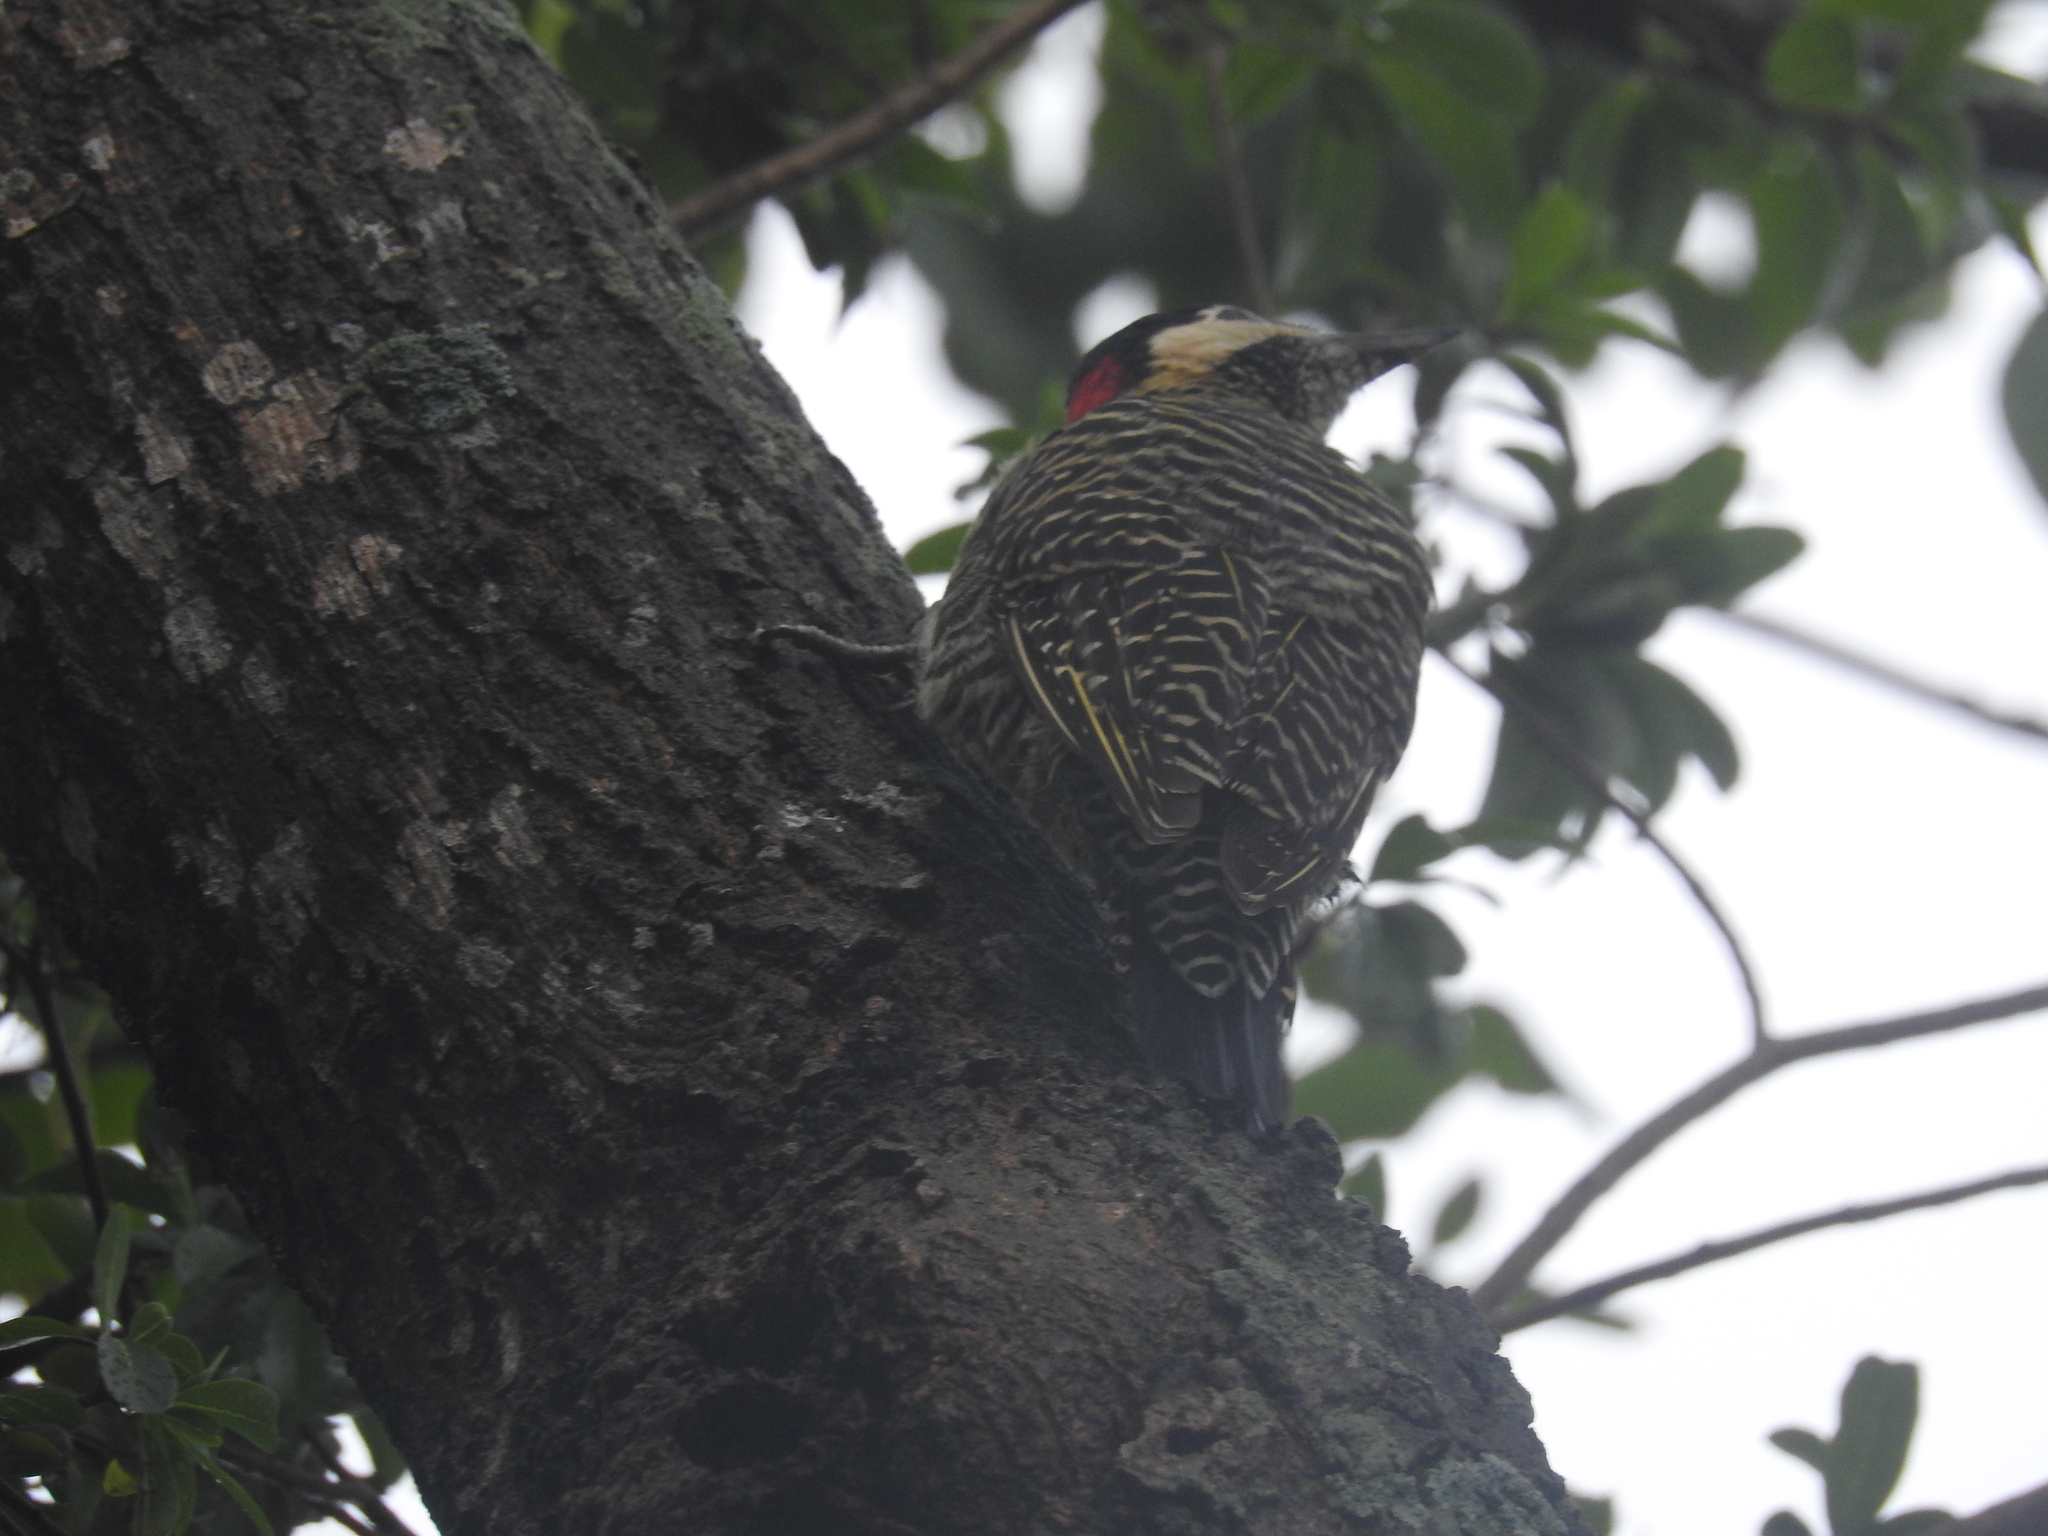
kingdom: Animalia
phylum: Chordata
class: Aves
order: Piciformes
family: Picidae
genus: Colaptes
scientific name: Colaptes melanochloros
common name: Green-barred woodpecker
